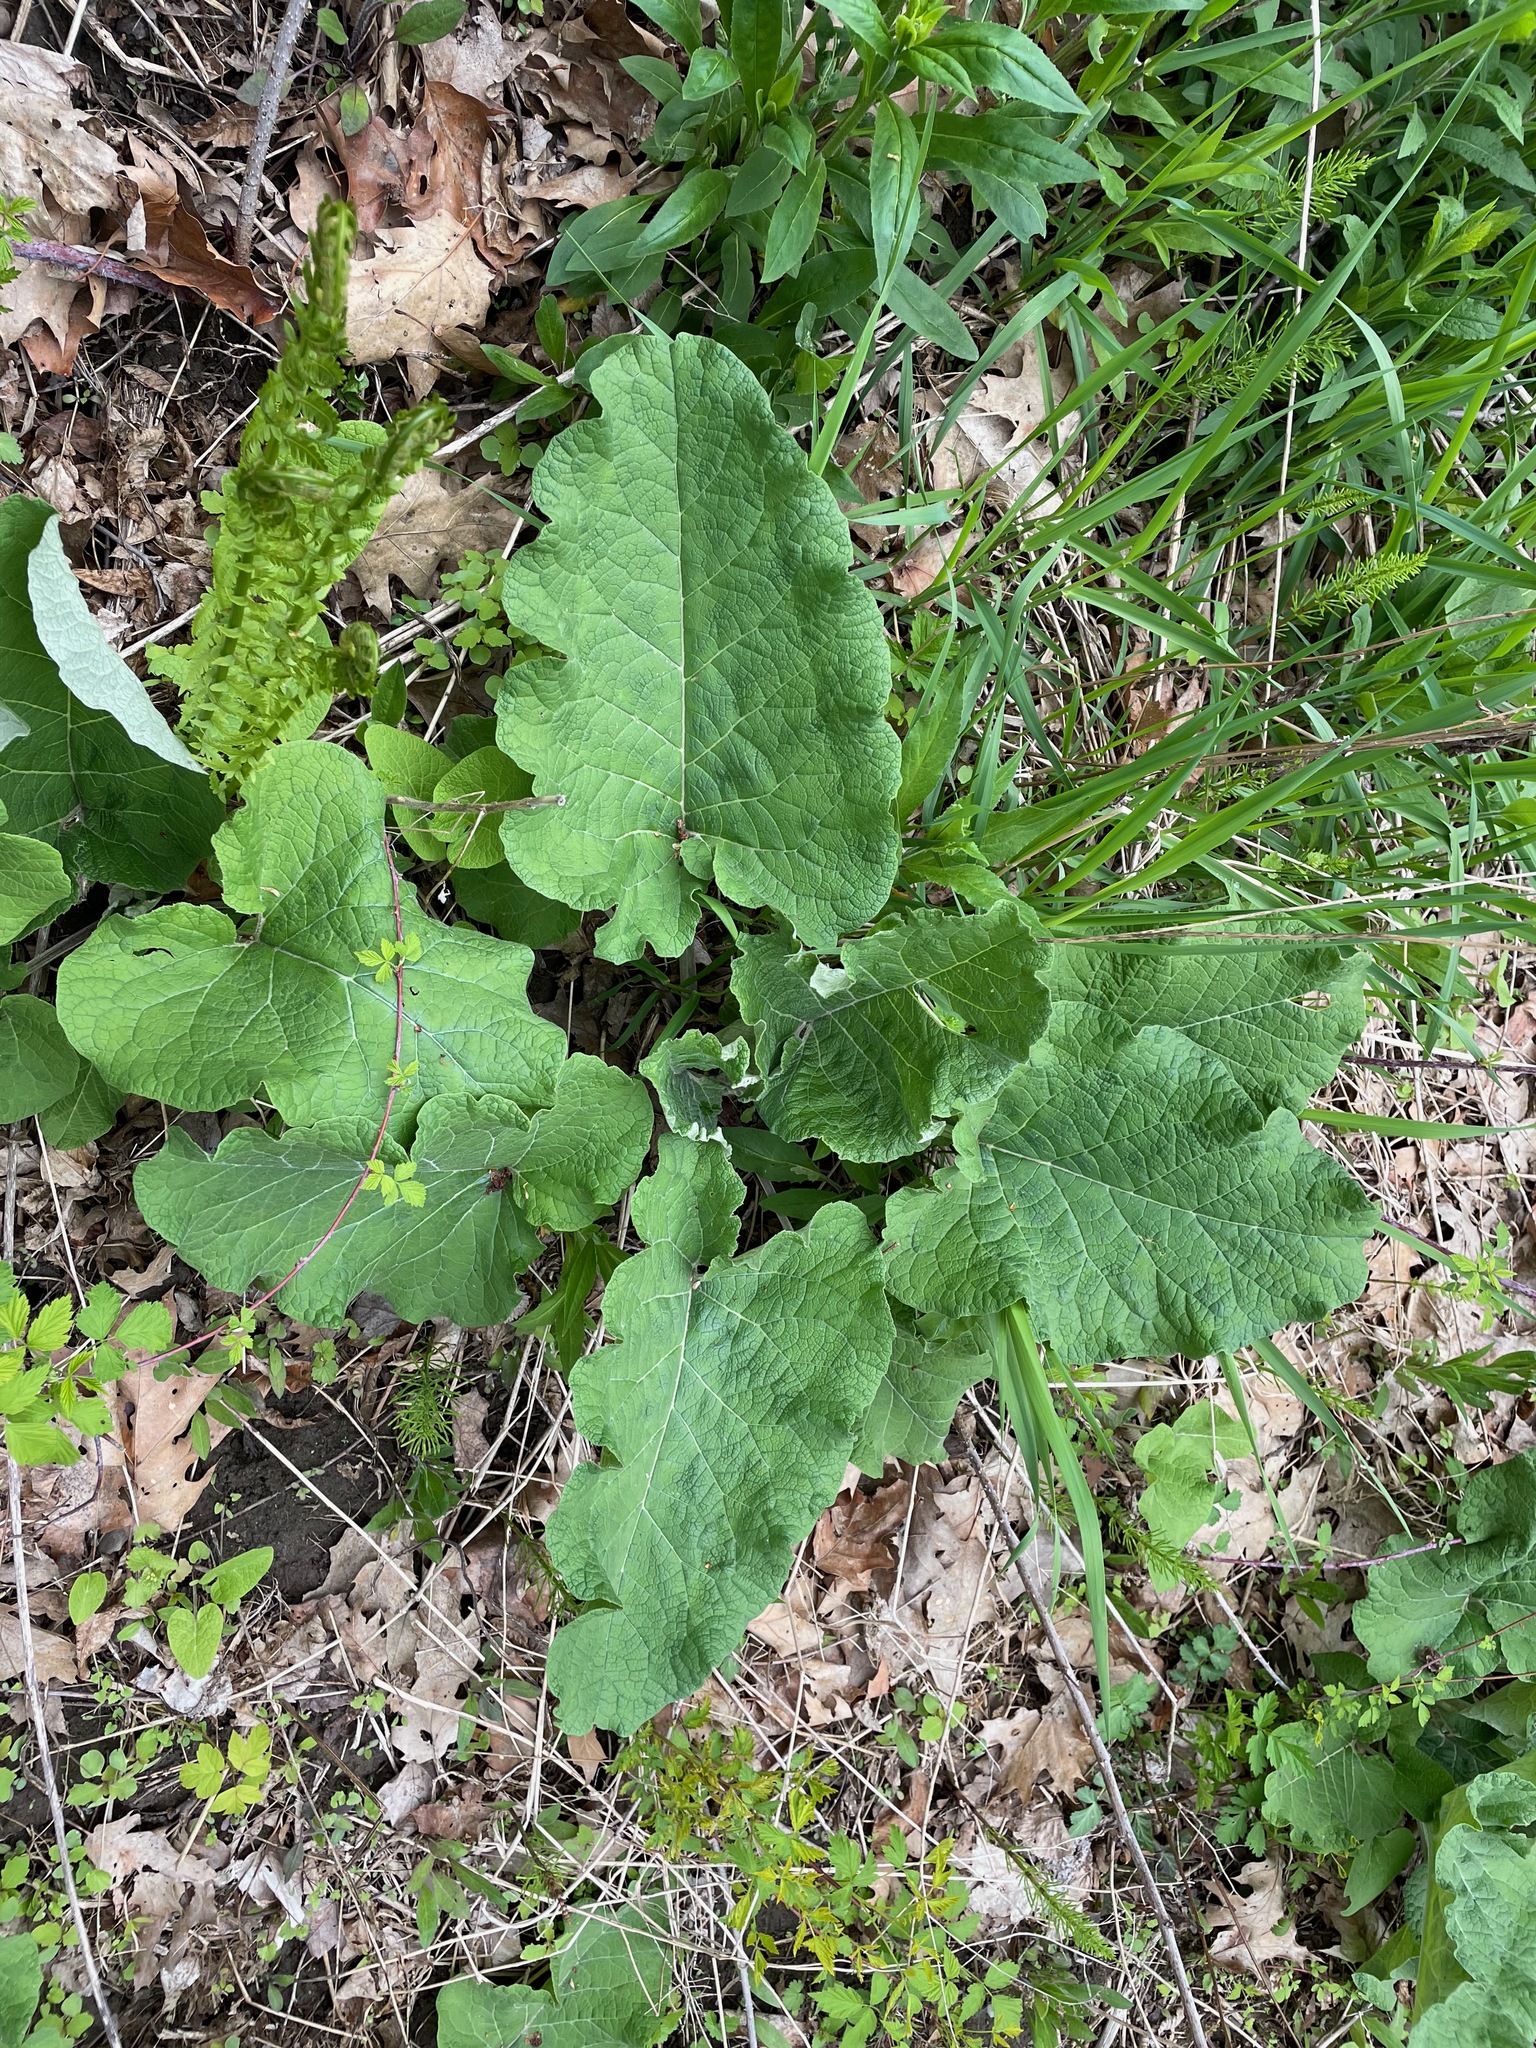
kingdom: Plantae
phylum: Tracheophyta
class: Magnoliopsida
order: Asterales
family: Asteraceae
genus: Arctium
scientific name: Arctium
